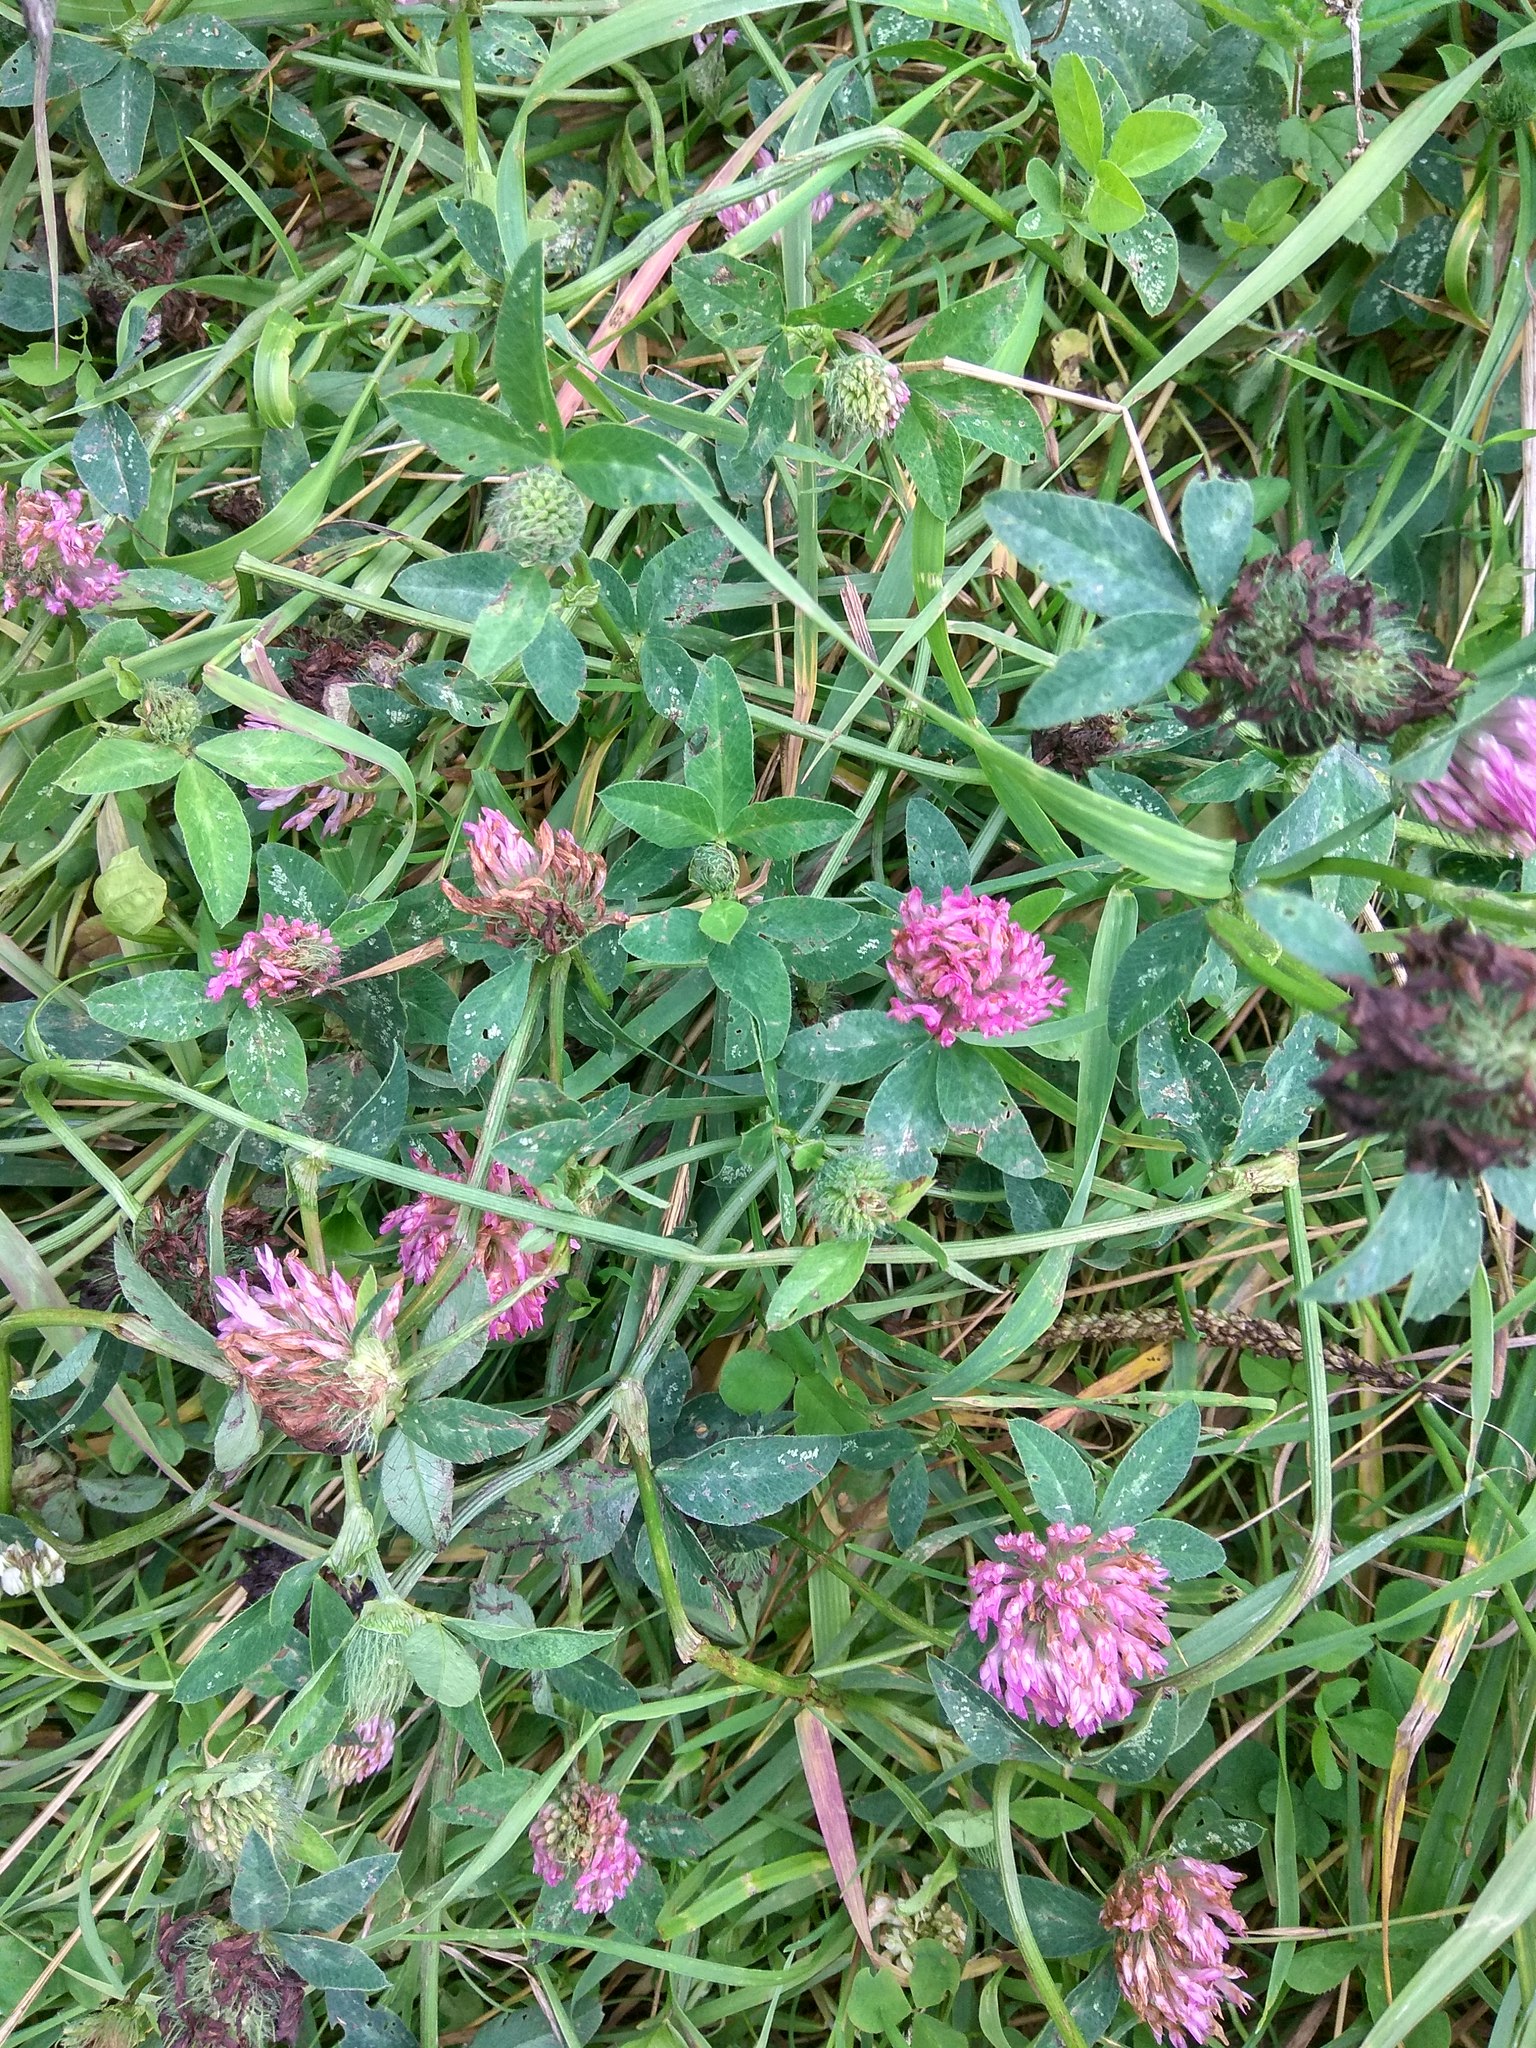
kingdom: Plantae
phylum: Tracheophyta
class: Magnoliopsida
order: Fabales
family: Fabaceae
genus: Trifolium
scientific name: Trifolium medium
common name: Zigzag clover
